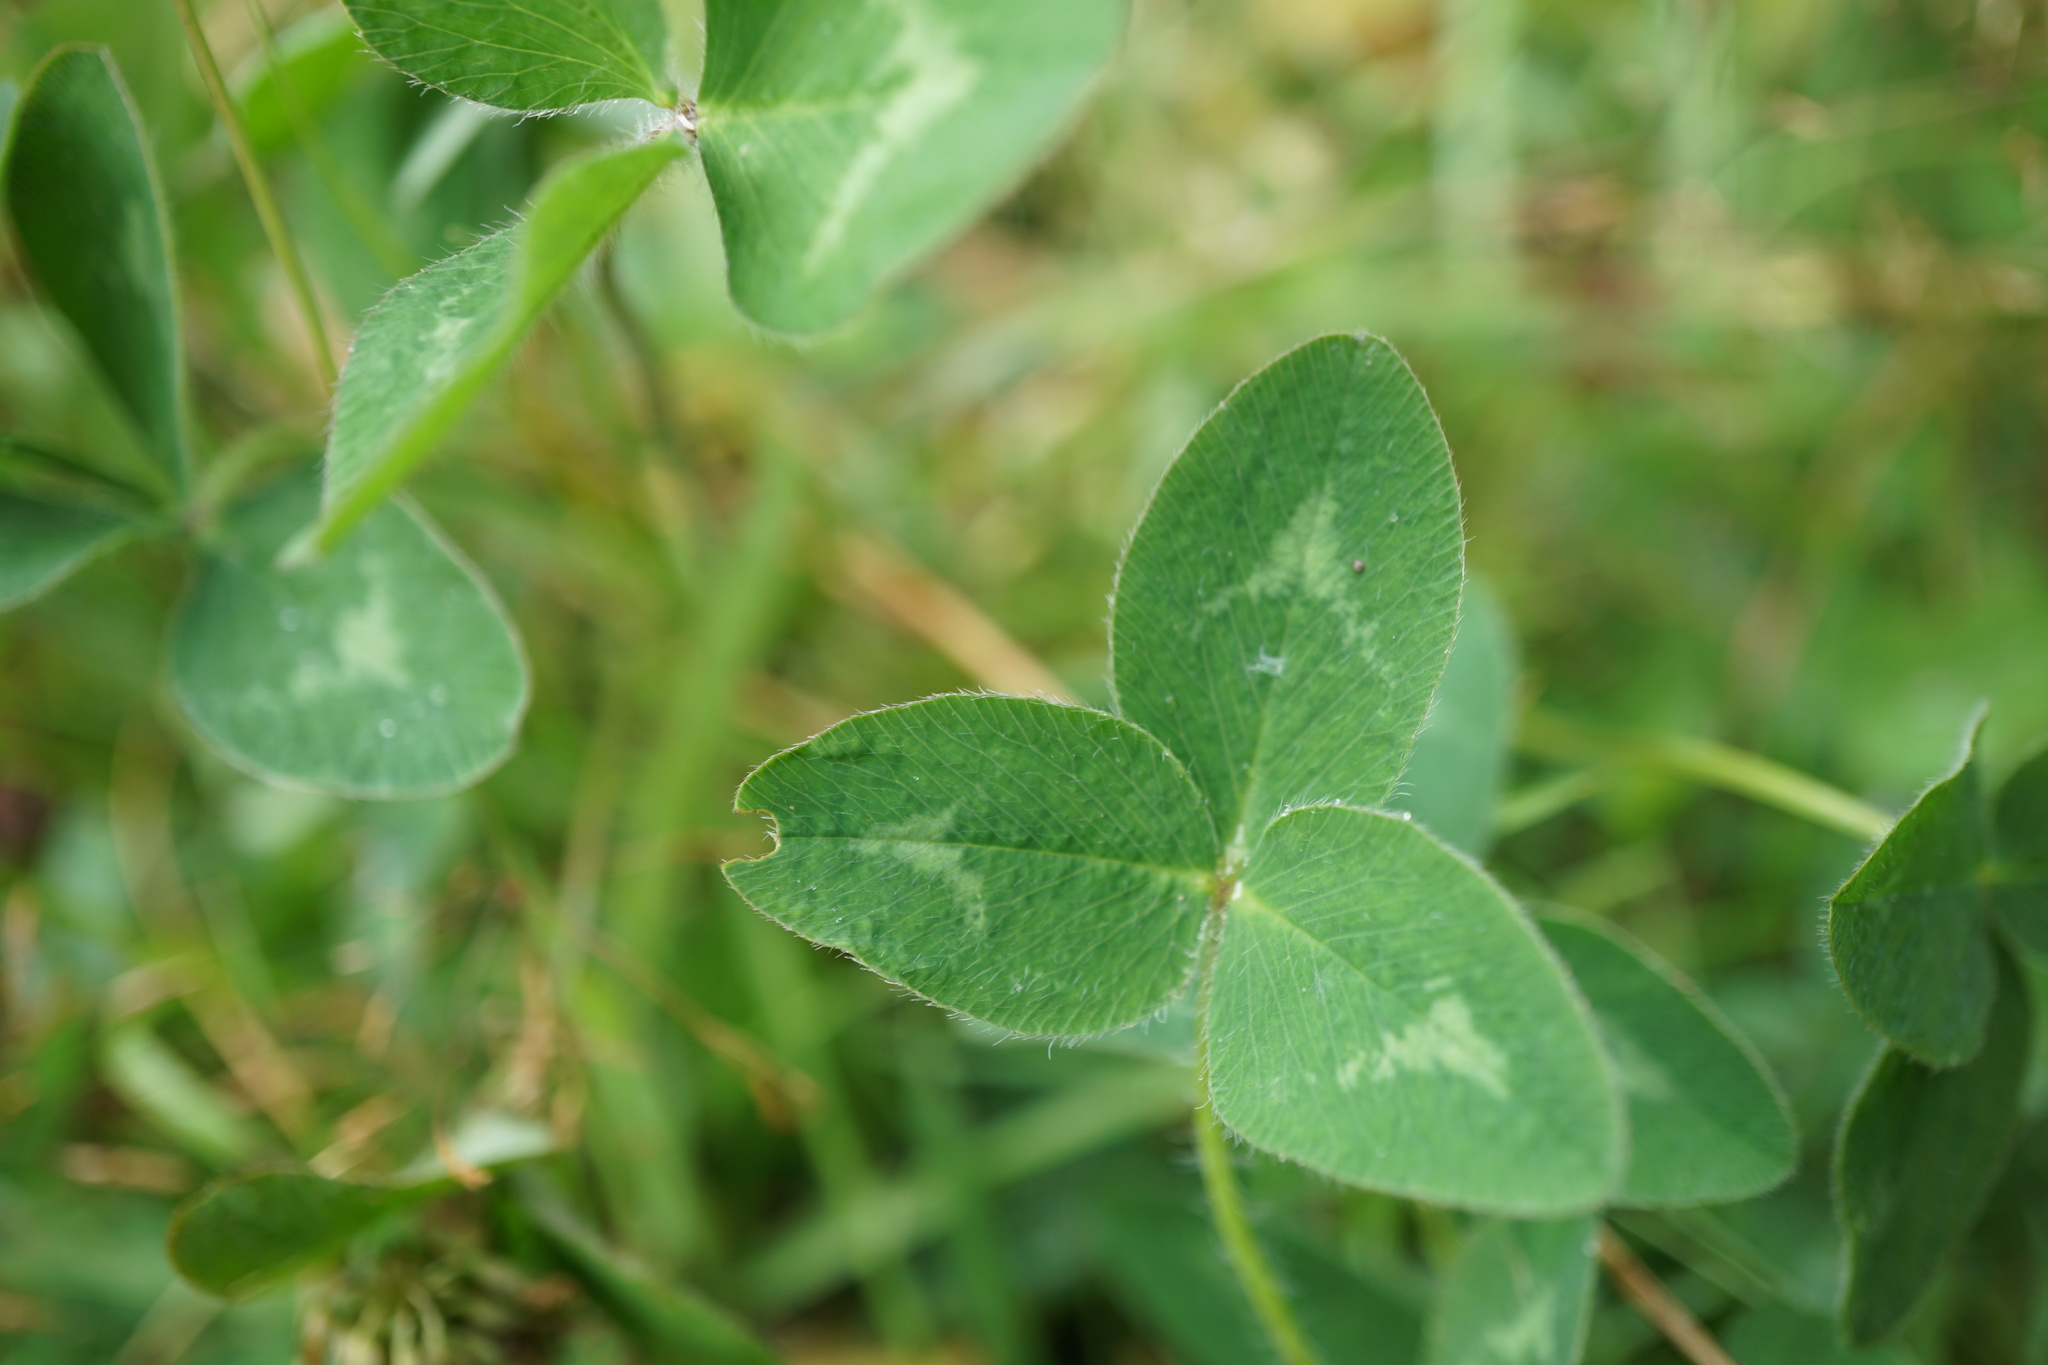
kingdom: Plantae
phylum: Tracheophyta
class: Magnoliopsida
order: Fabales
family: Fabaceae
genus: Trifolium
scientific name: Trifolium pratense
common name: Red clover
